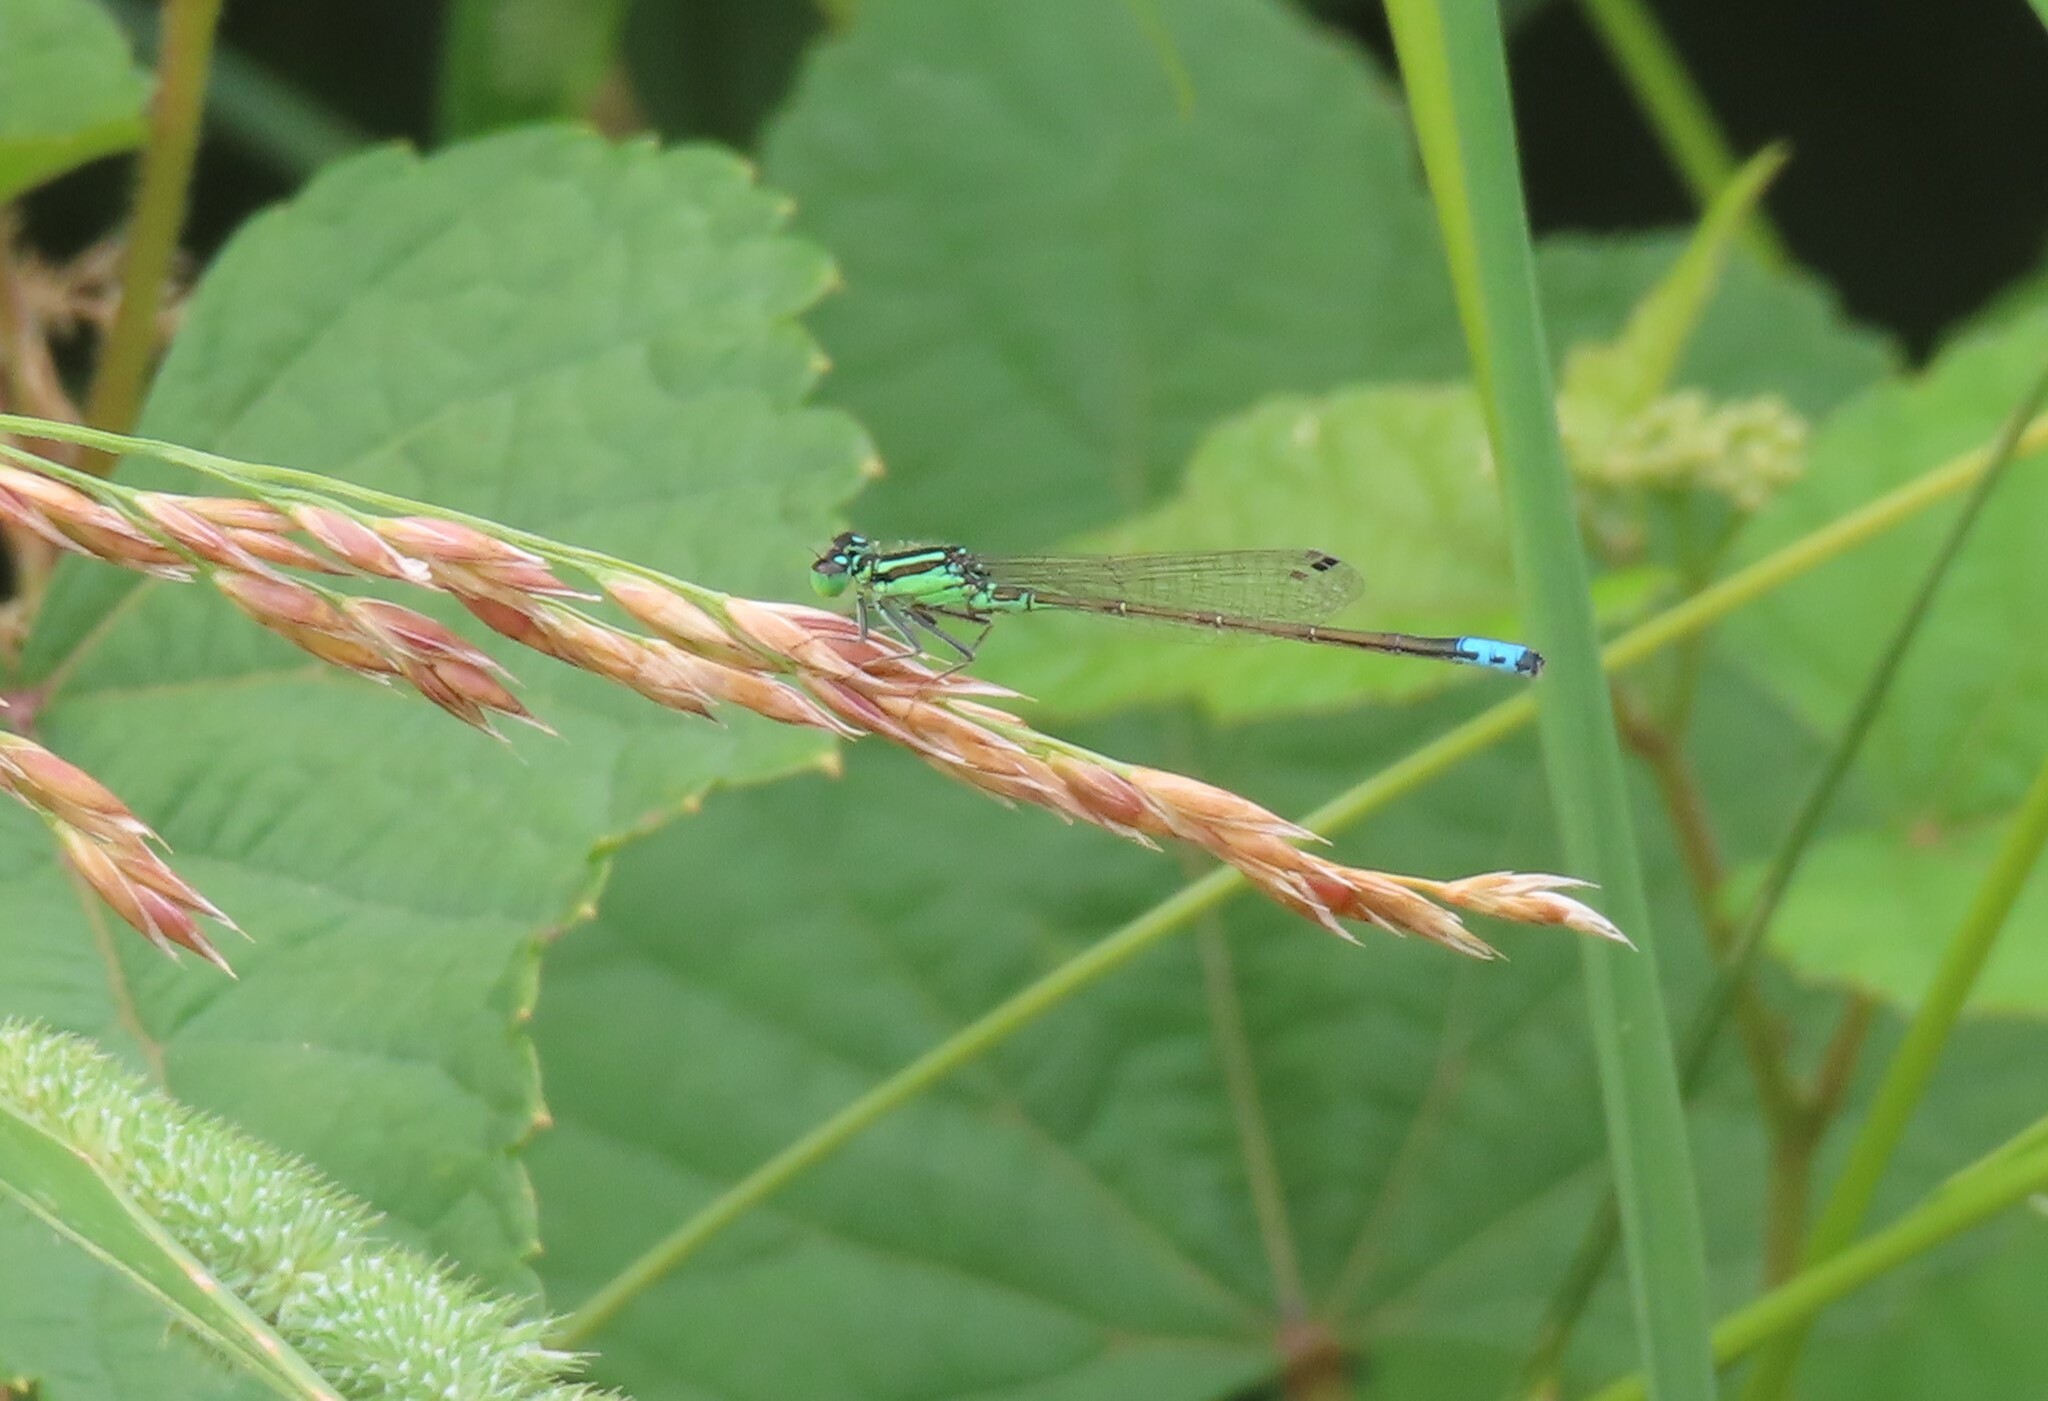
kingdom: Animalia
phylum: Arthropoda
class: Insecta
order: Odonata
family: Coenagrionidae
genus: Ischnura
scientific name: Ischnura verticalis
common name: Eastern forktail
